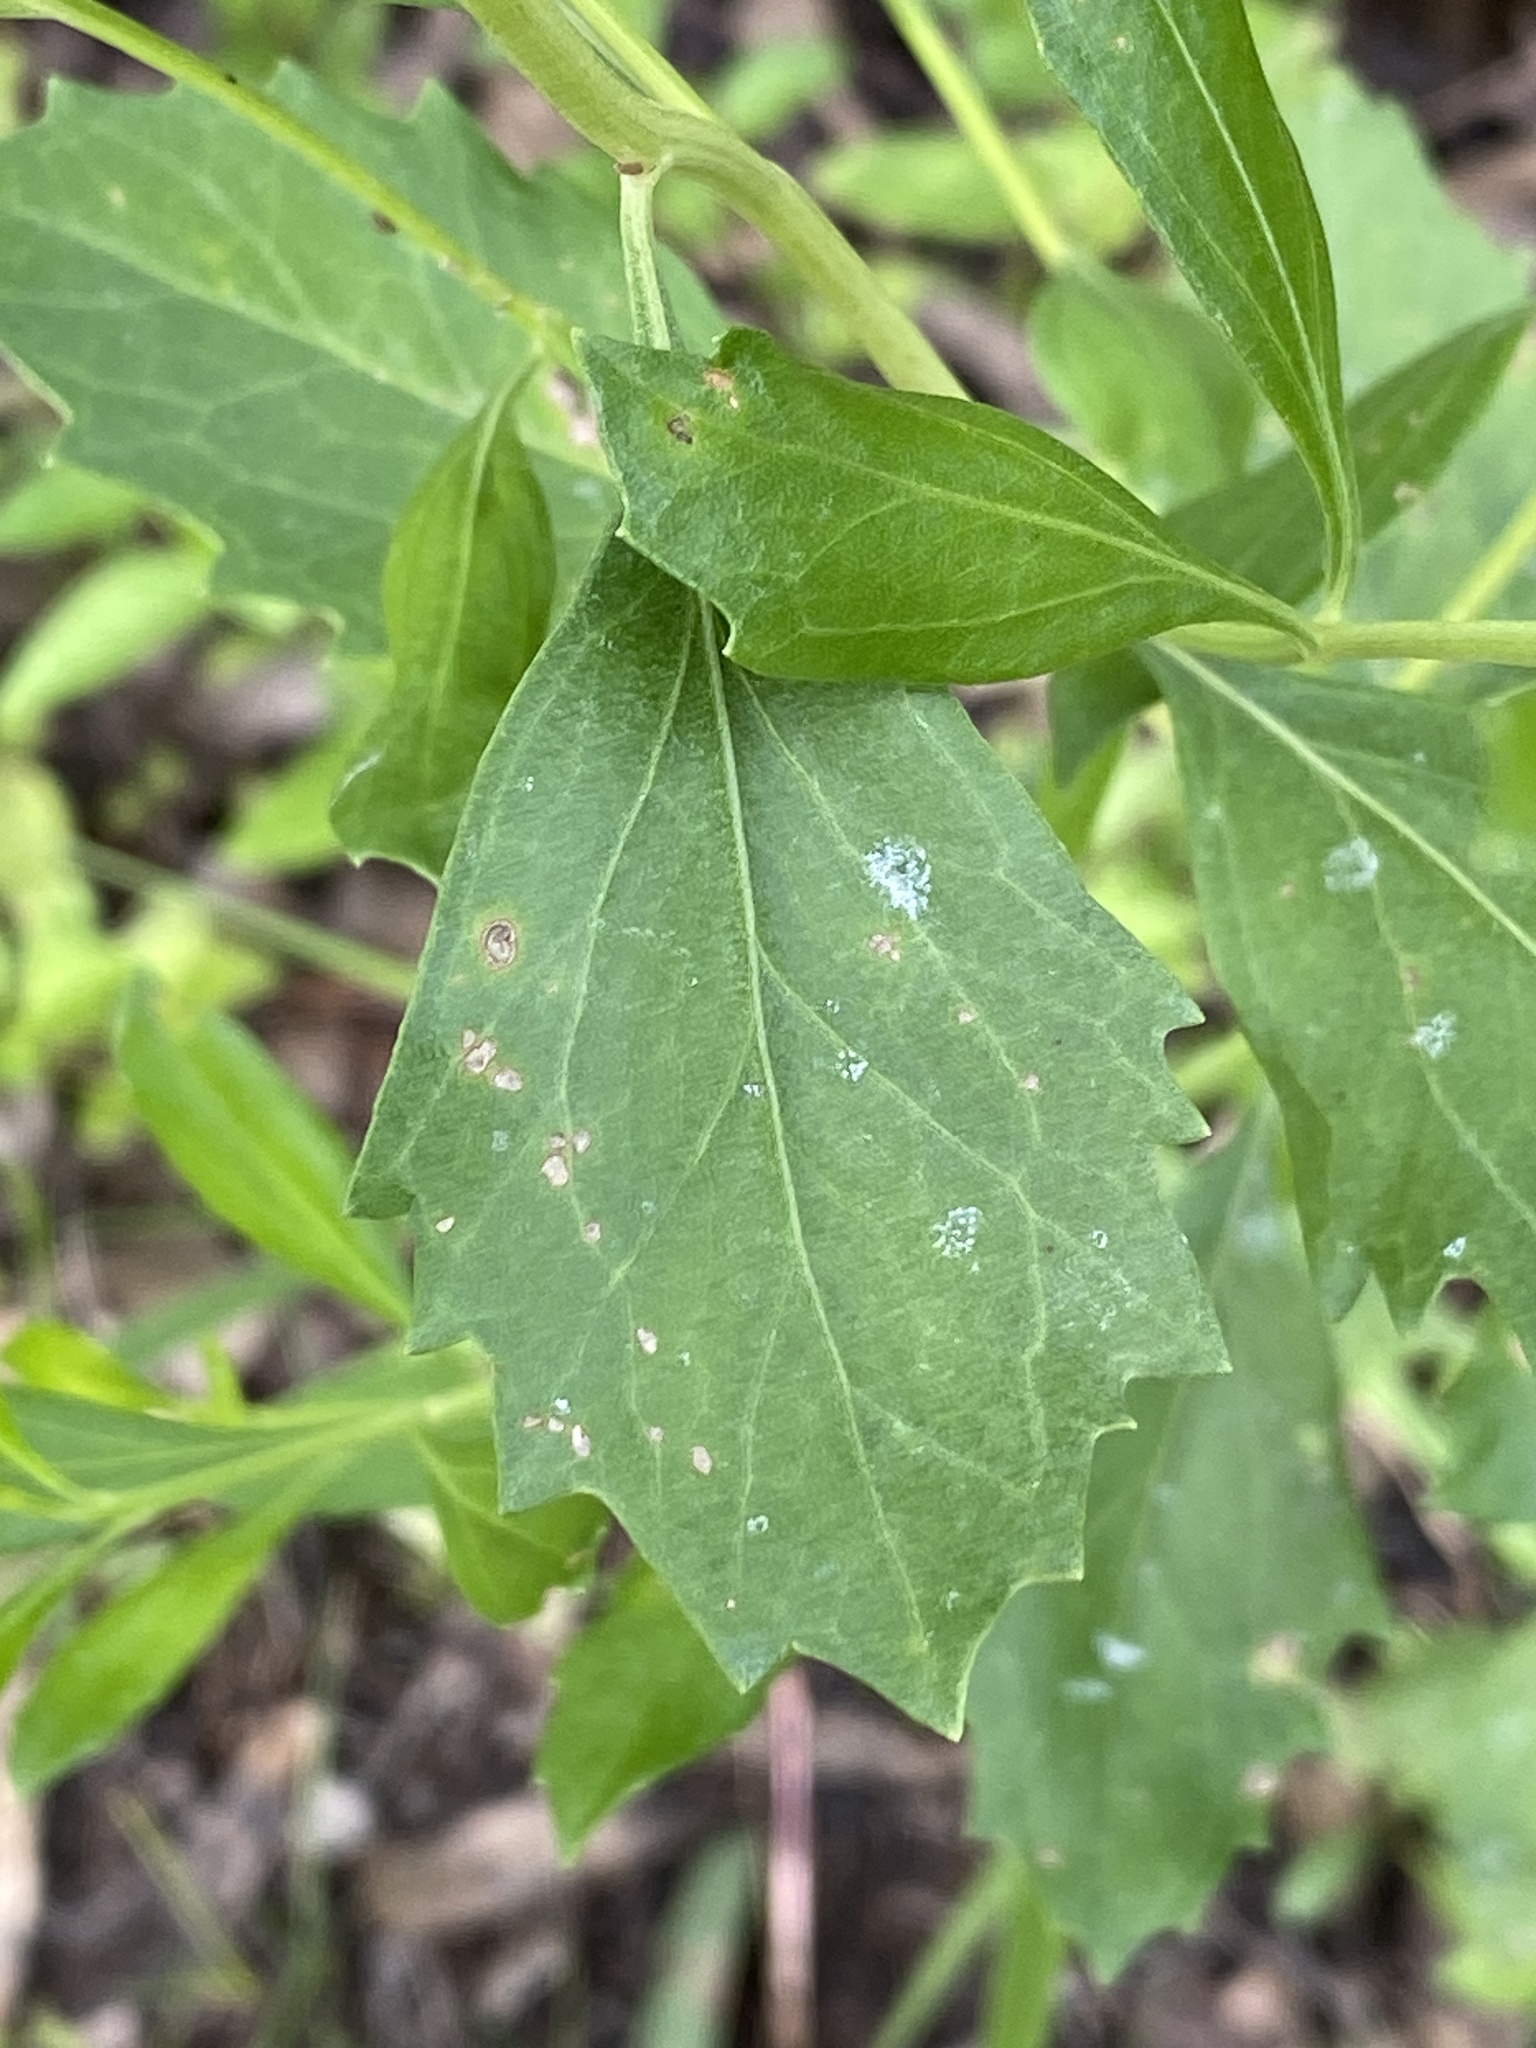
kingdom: Plantae
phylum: Tracheophyta
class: Magnoliopsida
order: Asterales
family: Asteraceae
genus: Baccharis
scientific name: Baccharis halimifolia
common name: Eastern baccharis
